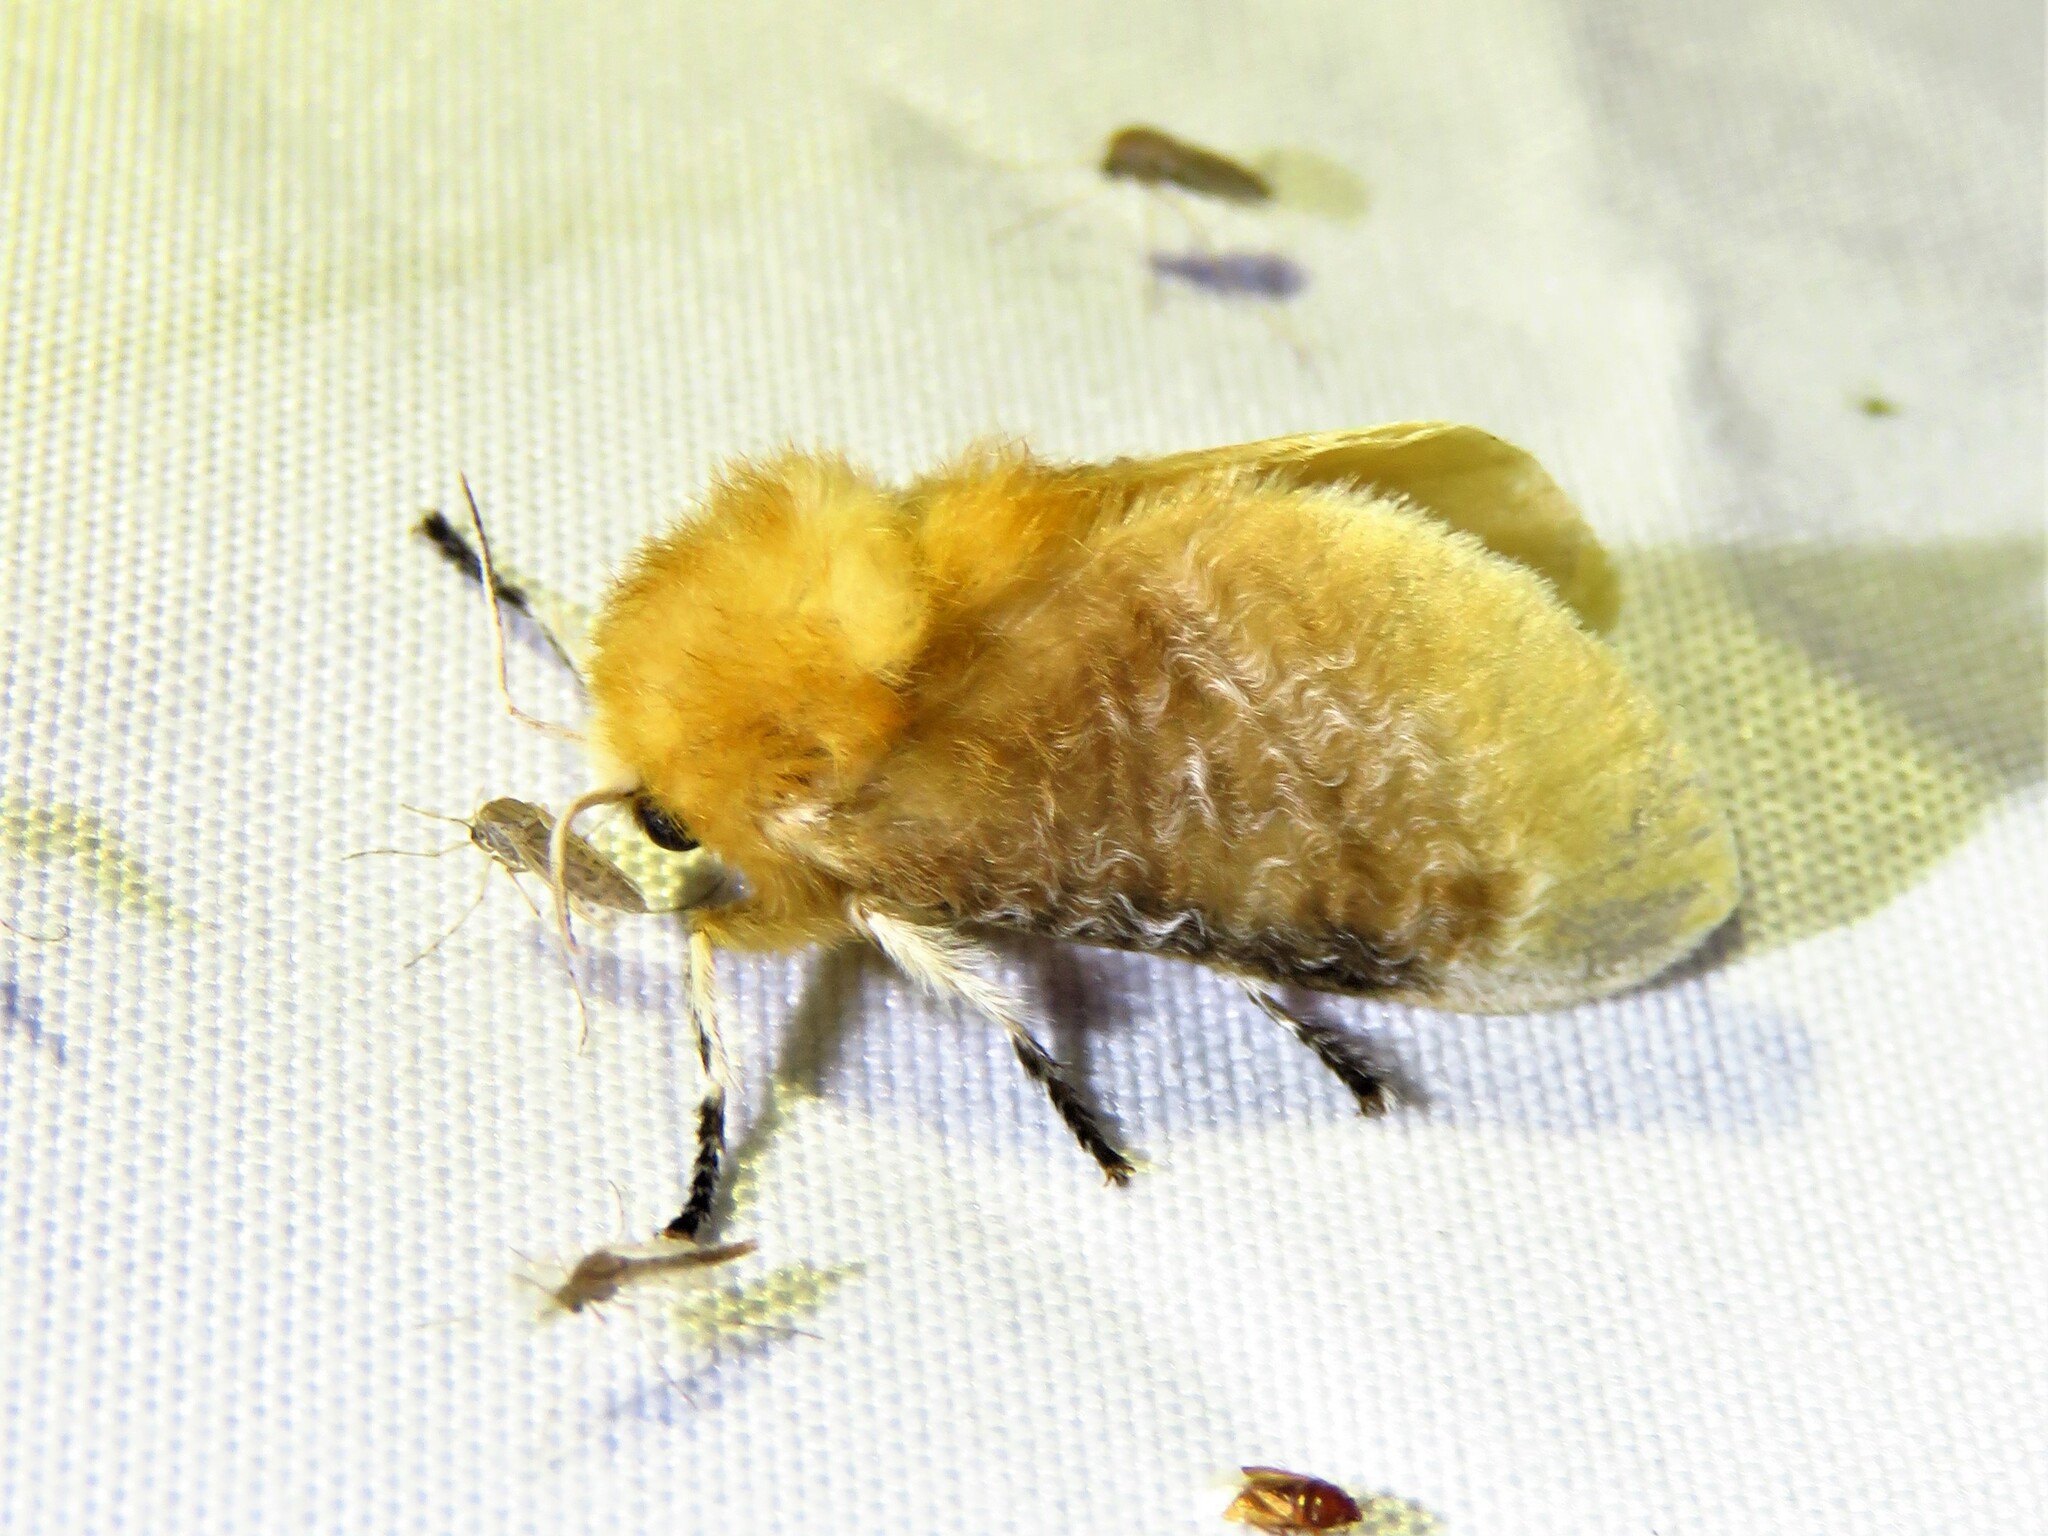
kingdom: Animalia
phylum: Arthropoda
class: Insecta
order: Lepidoptera
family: Megalopygidae
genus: Megalopyge
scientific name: Megalopyge opercularis
